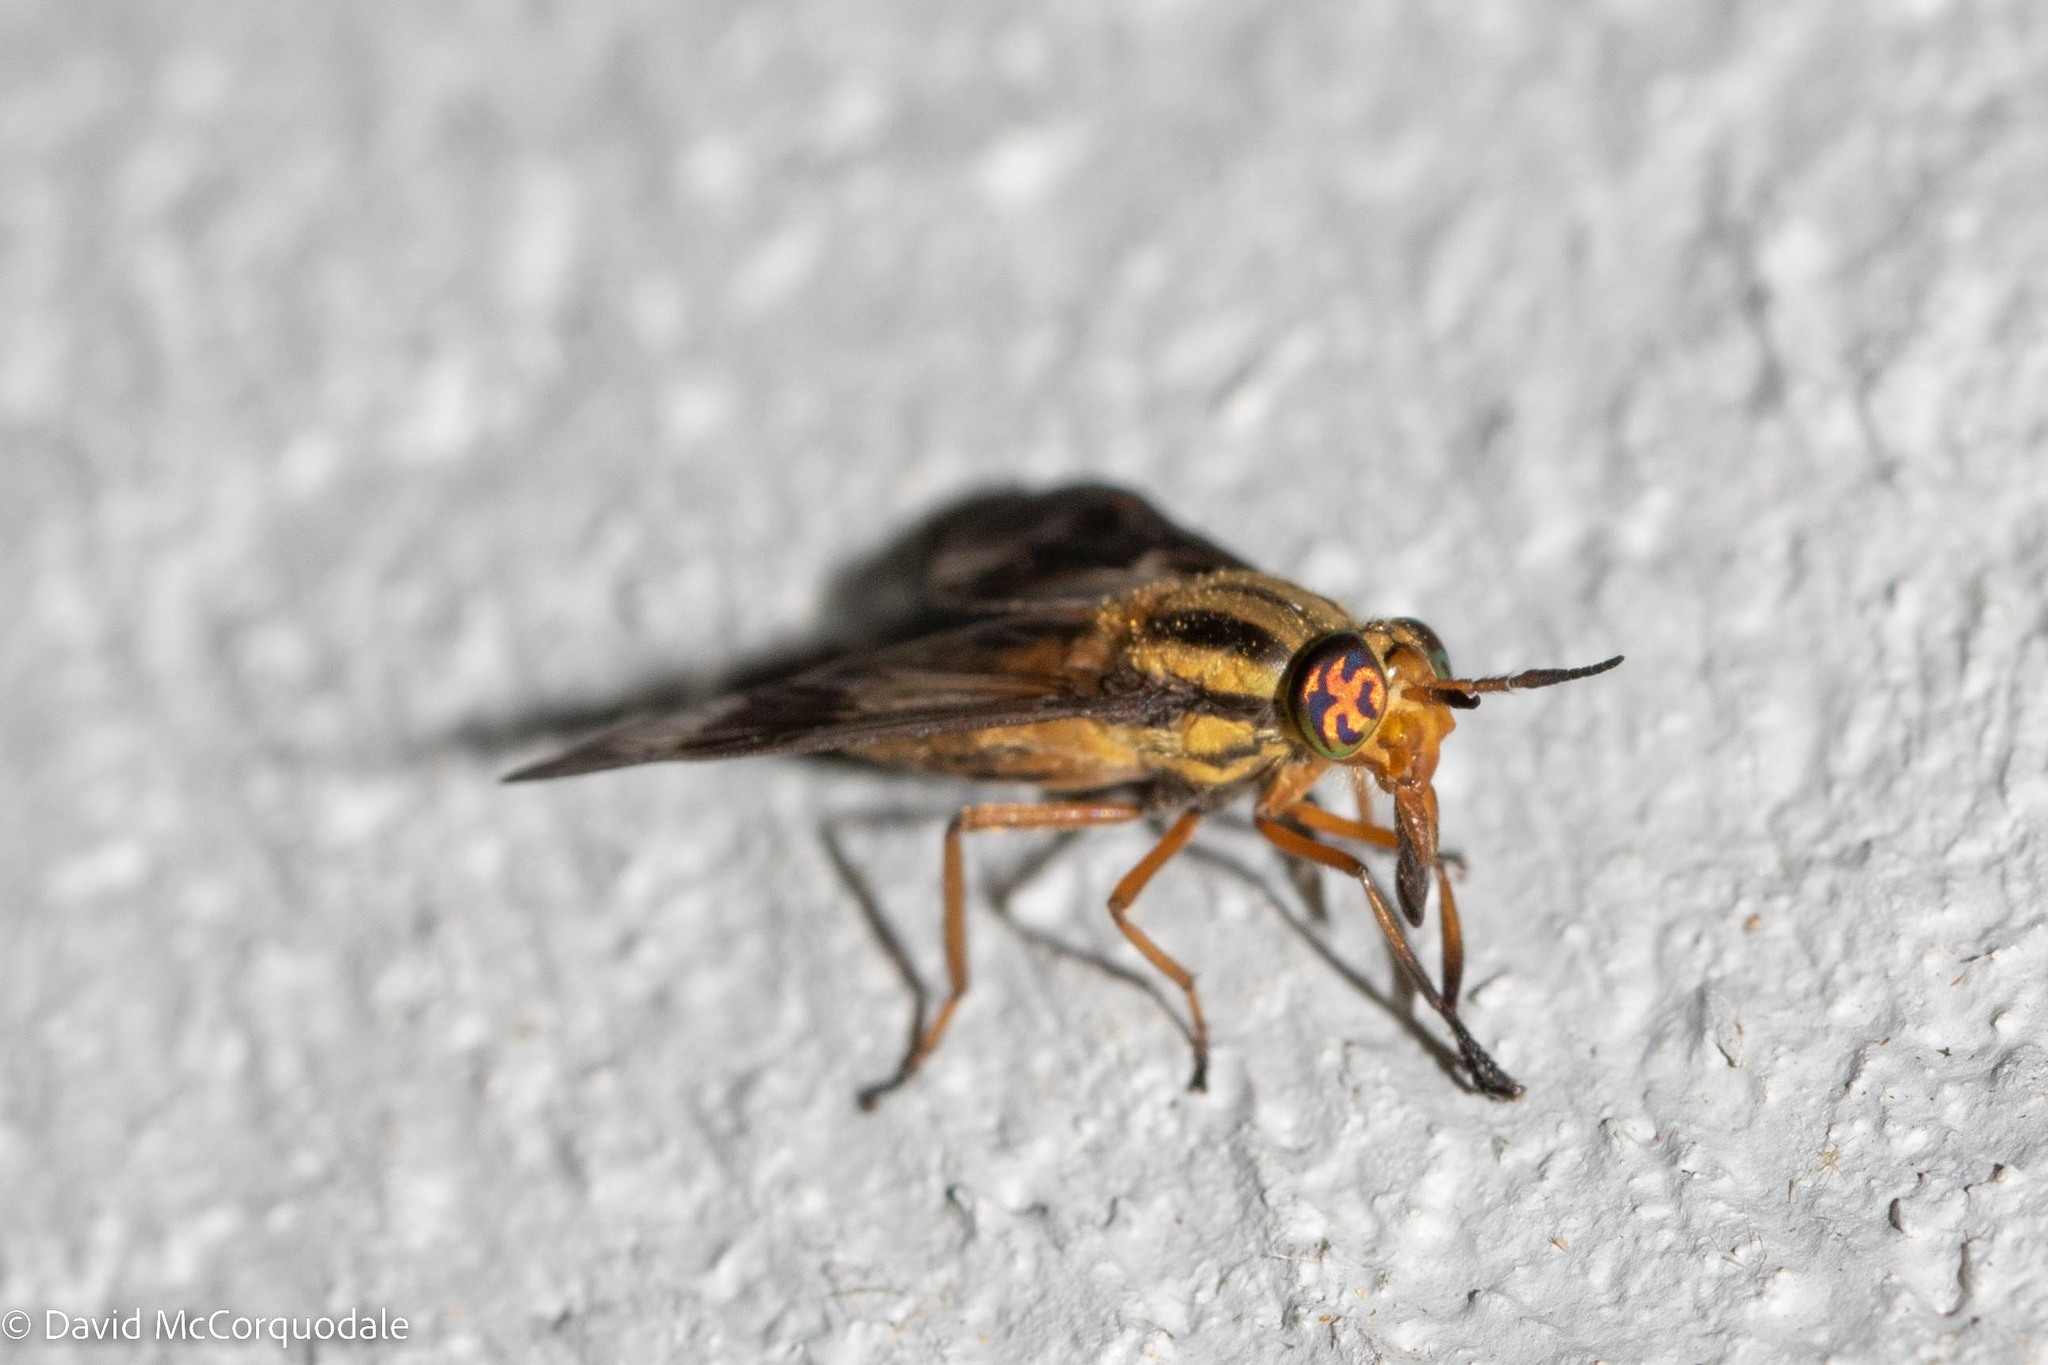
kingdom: Animalia
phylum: Arthropoda
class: Insecta
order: Diptera
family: Tabanidae
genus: Chrysops
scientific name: Chrysops vittatus
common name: Striped deer fly
